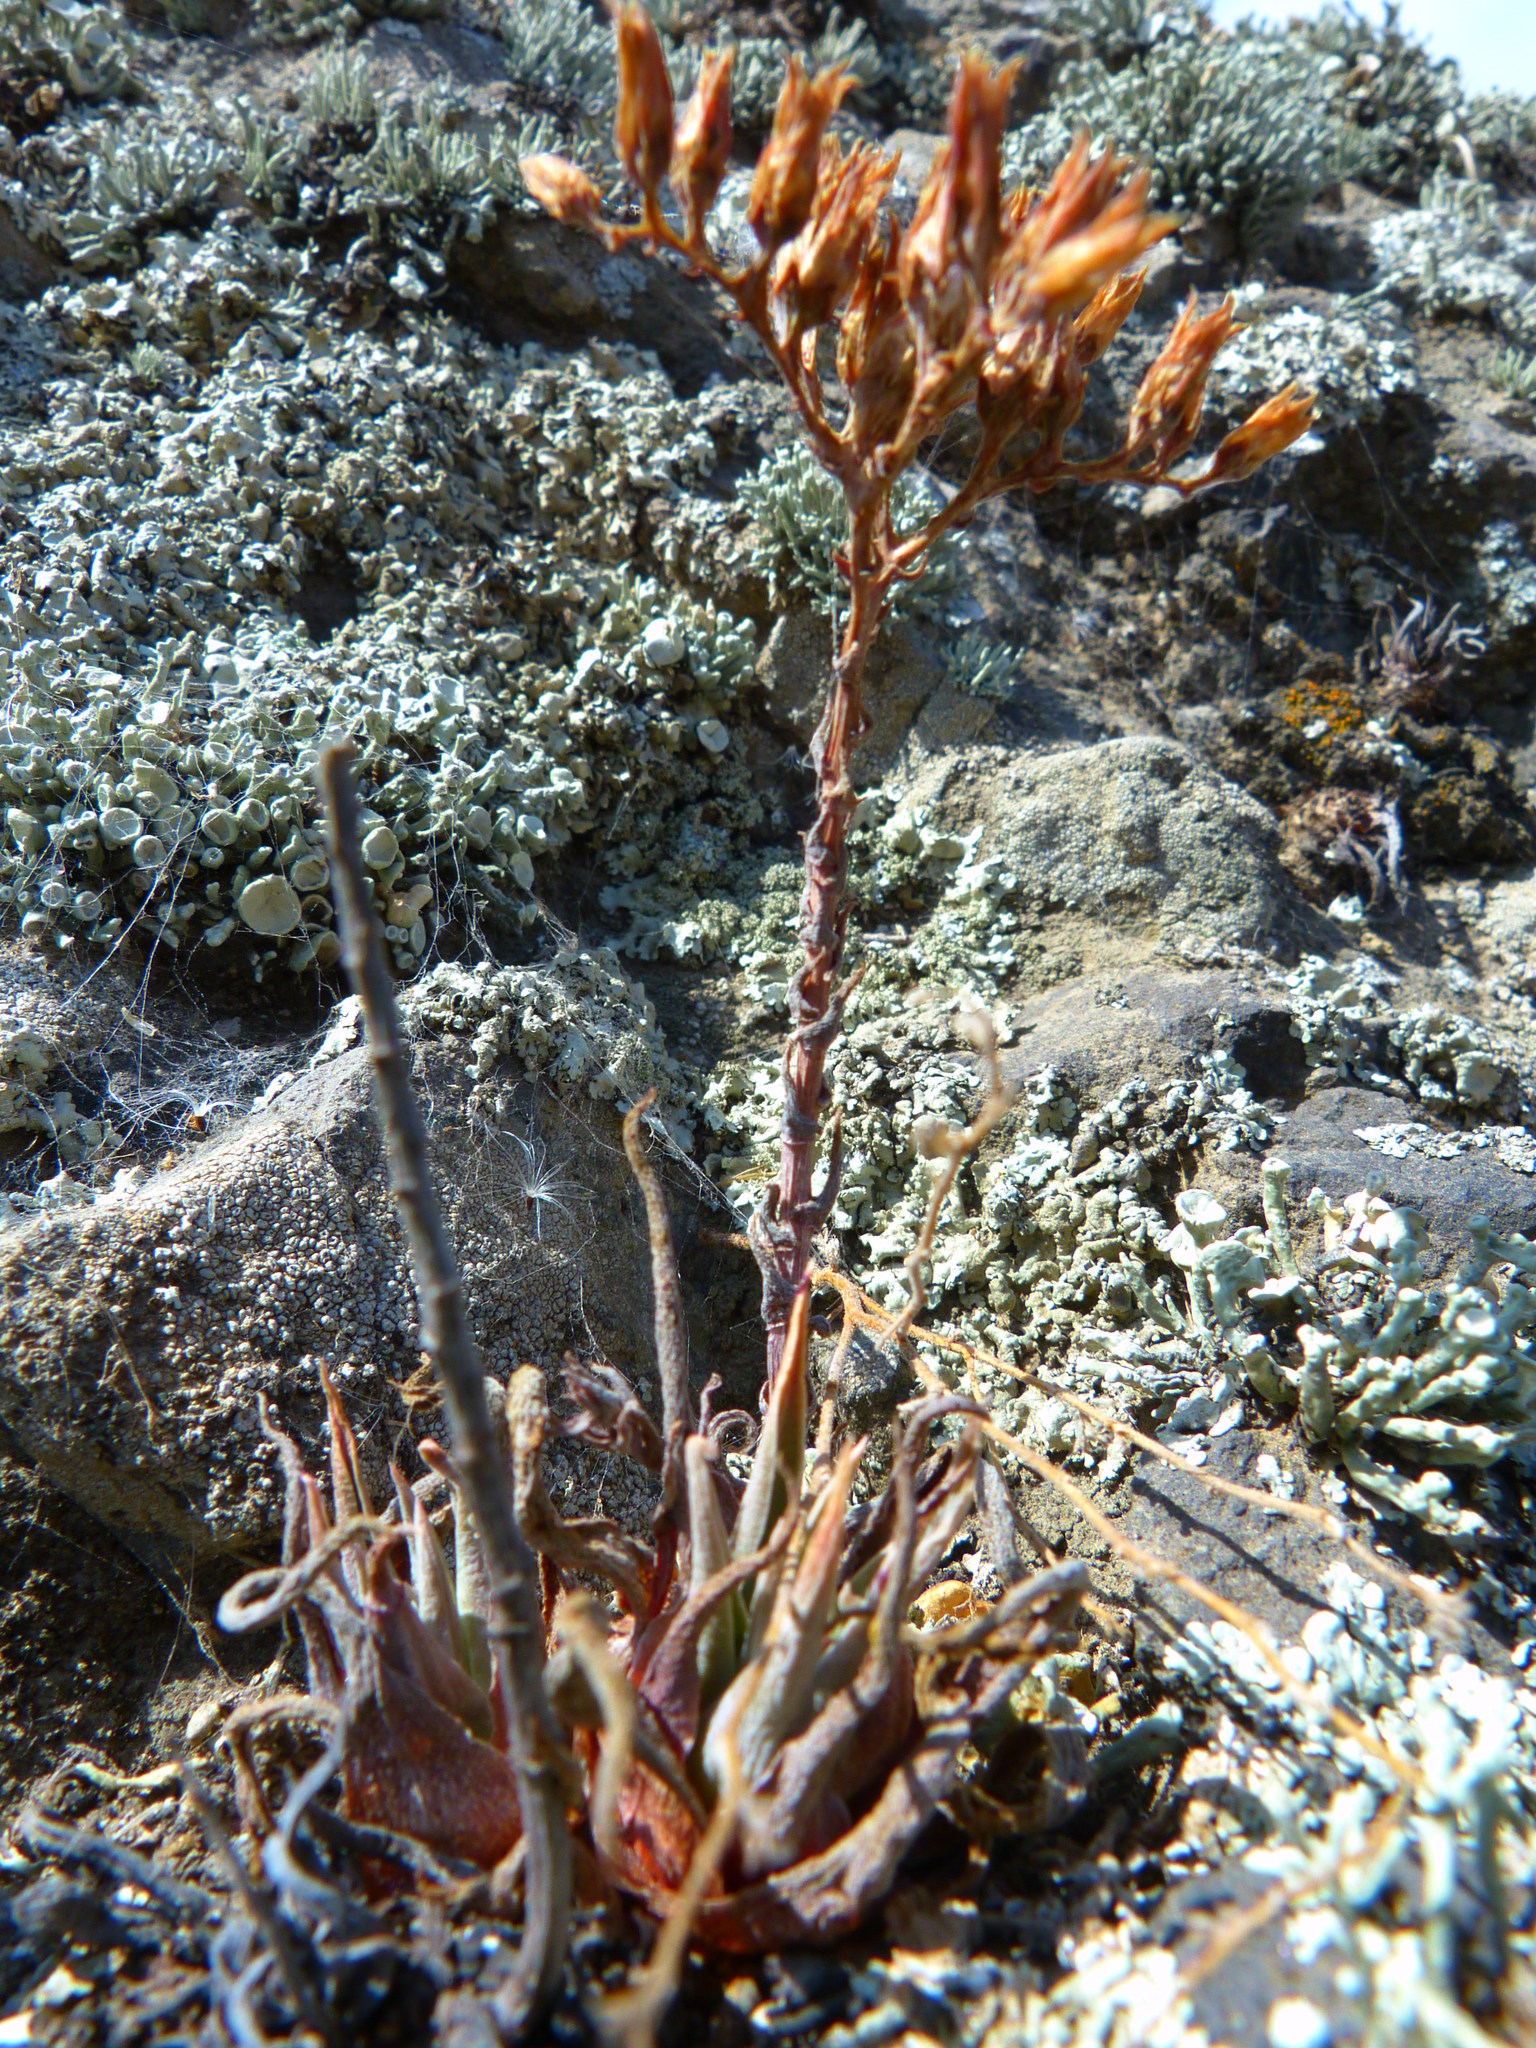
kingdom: Plantae
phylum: Tracheophyta
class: Magnoliopsida
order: Saxifragales
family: Crassulaceae
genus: Dudleya
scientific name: Dudleya verityi
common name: Verity dudleya
